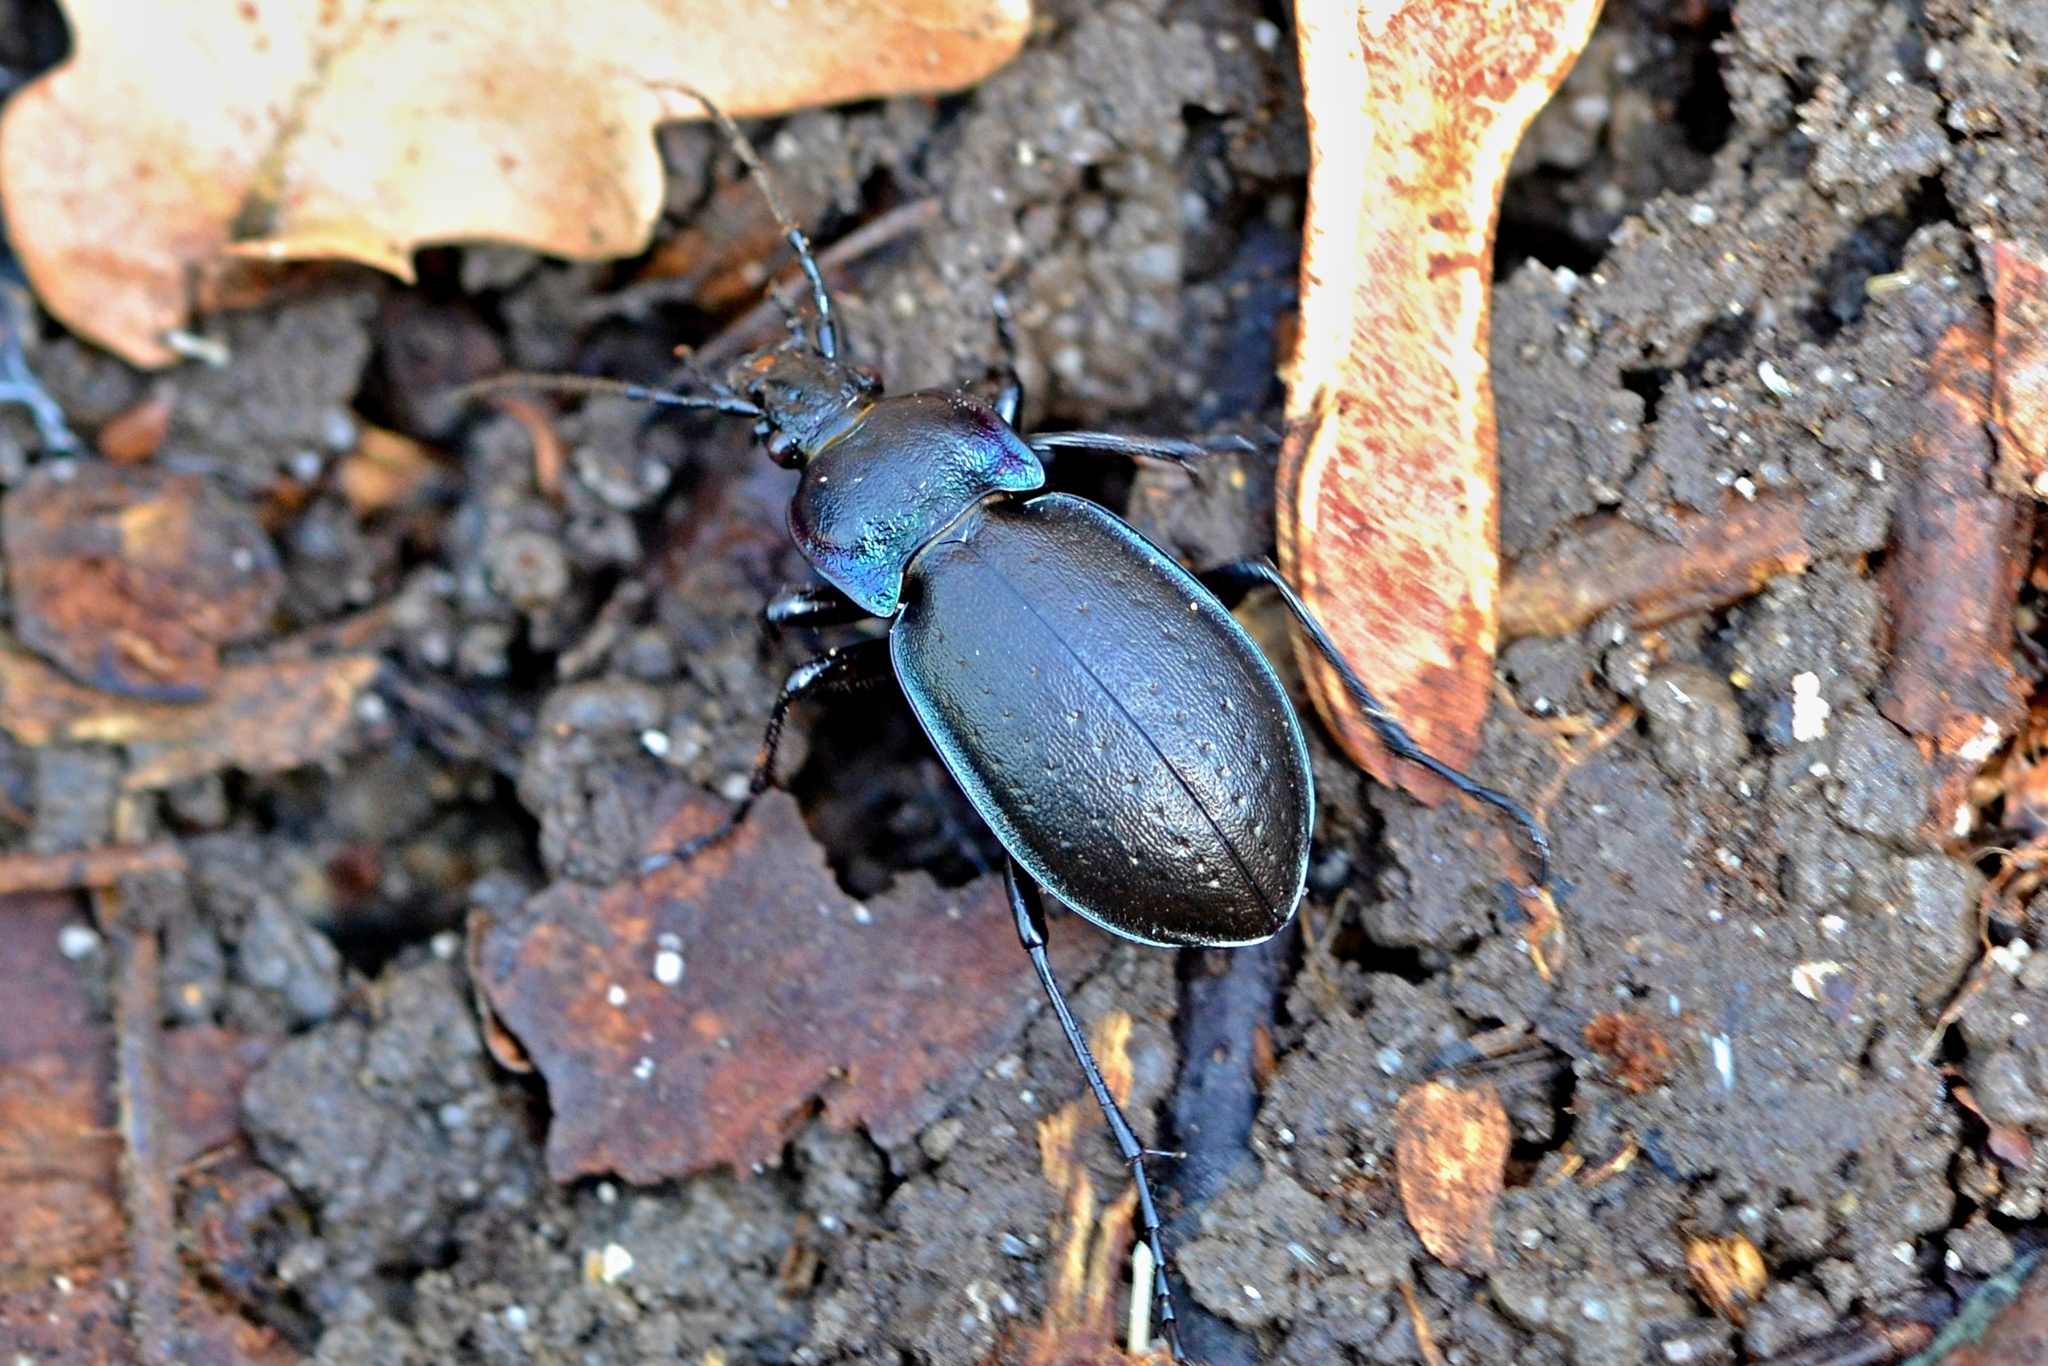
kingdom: Animalia
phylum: Arthropoda
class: Insecta
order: Coleoptera
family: Carabidae
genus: Carabus
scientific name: Carabus nemoralis
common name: European ground beetle
